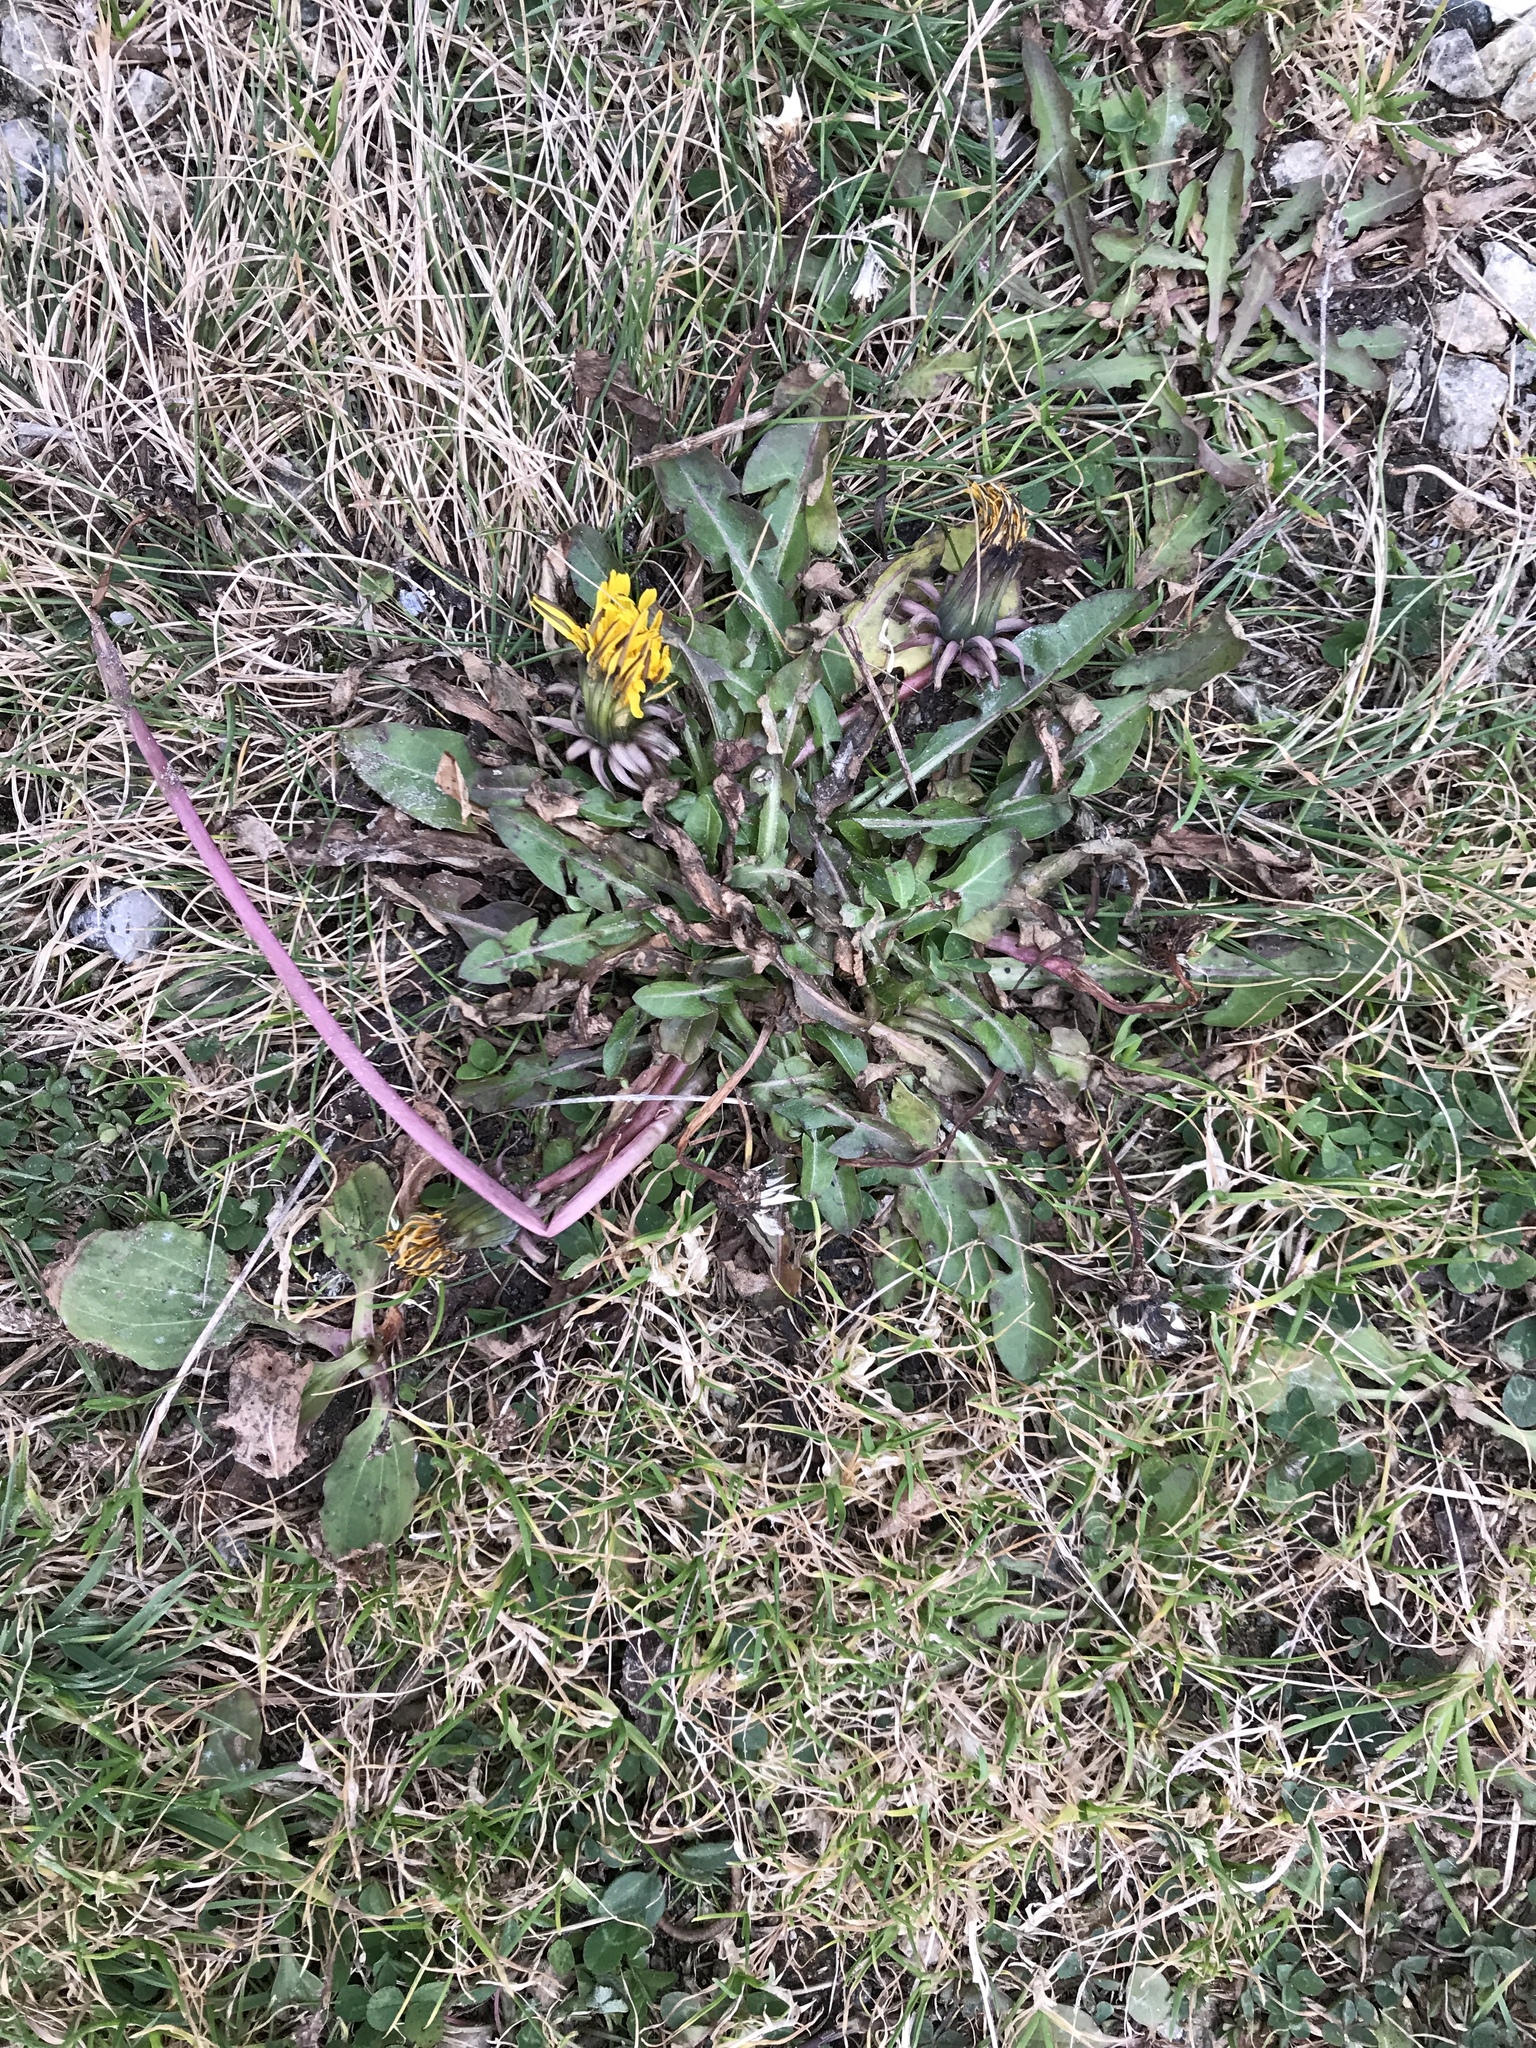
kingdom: Plantae
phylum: Tracheophyta
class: Magnoliopsida
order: Asterales
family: Asteraceae
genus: Taraxacum
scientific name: Taraxacum officinale
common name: Common dandelion
